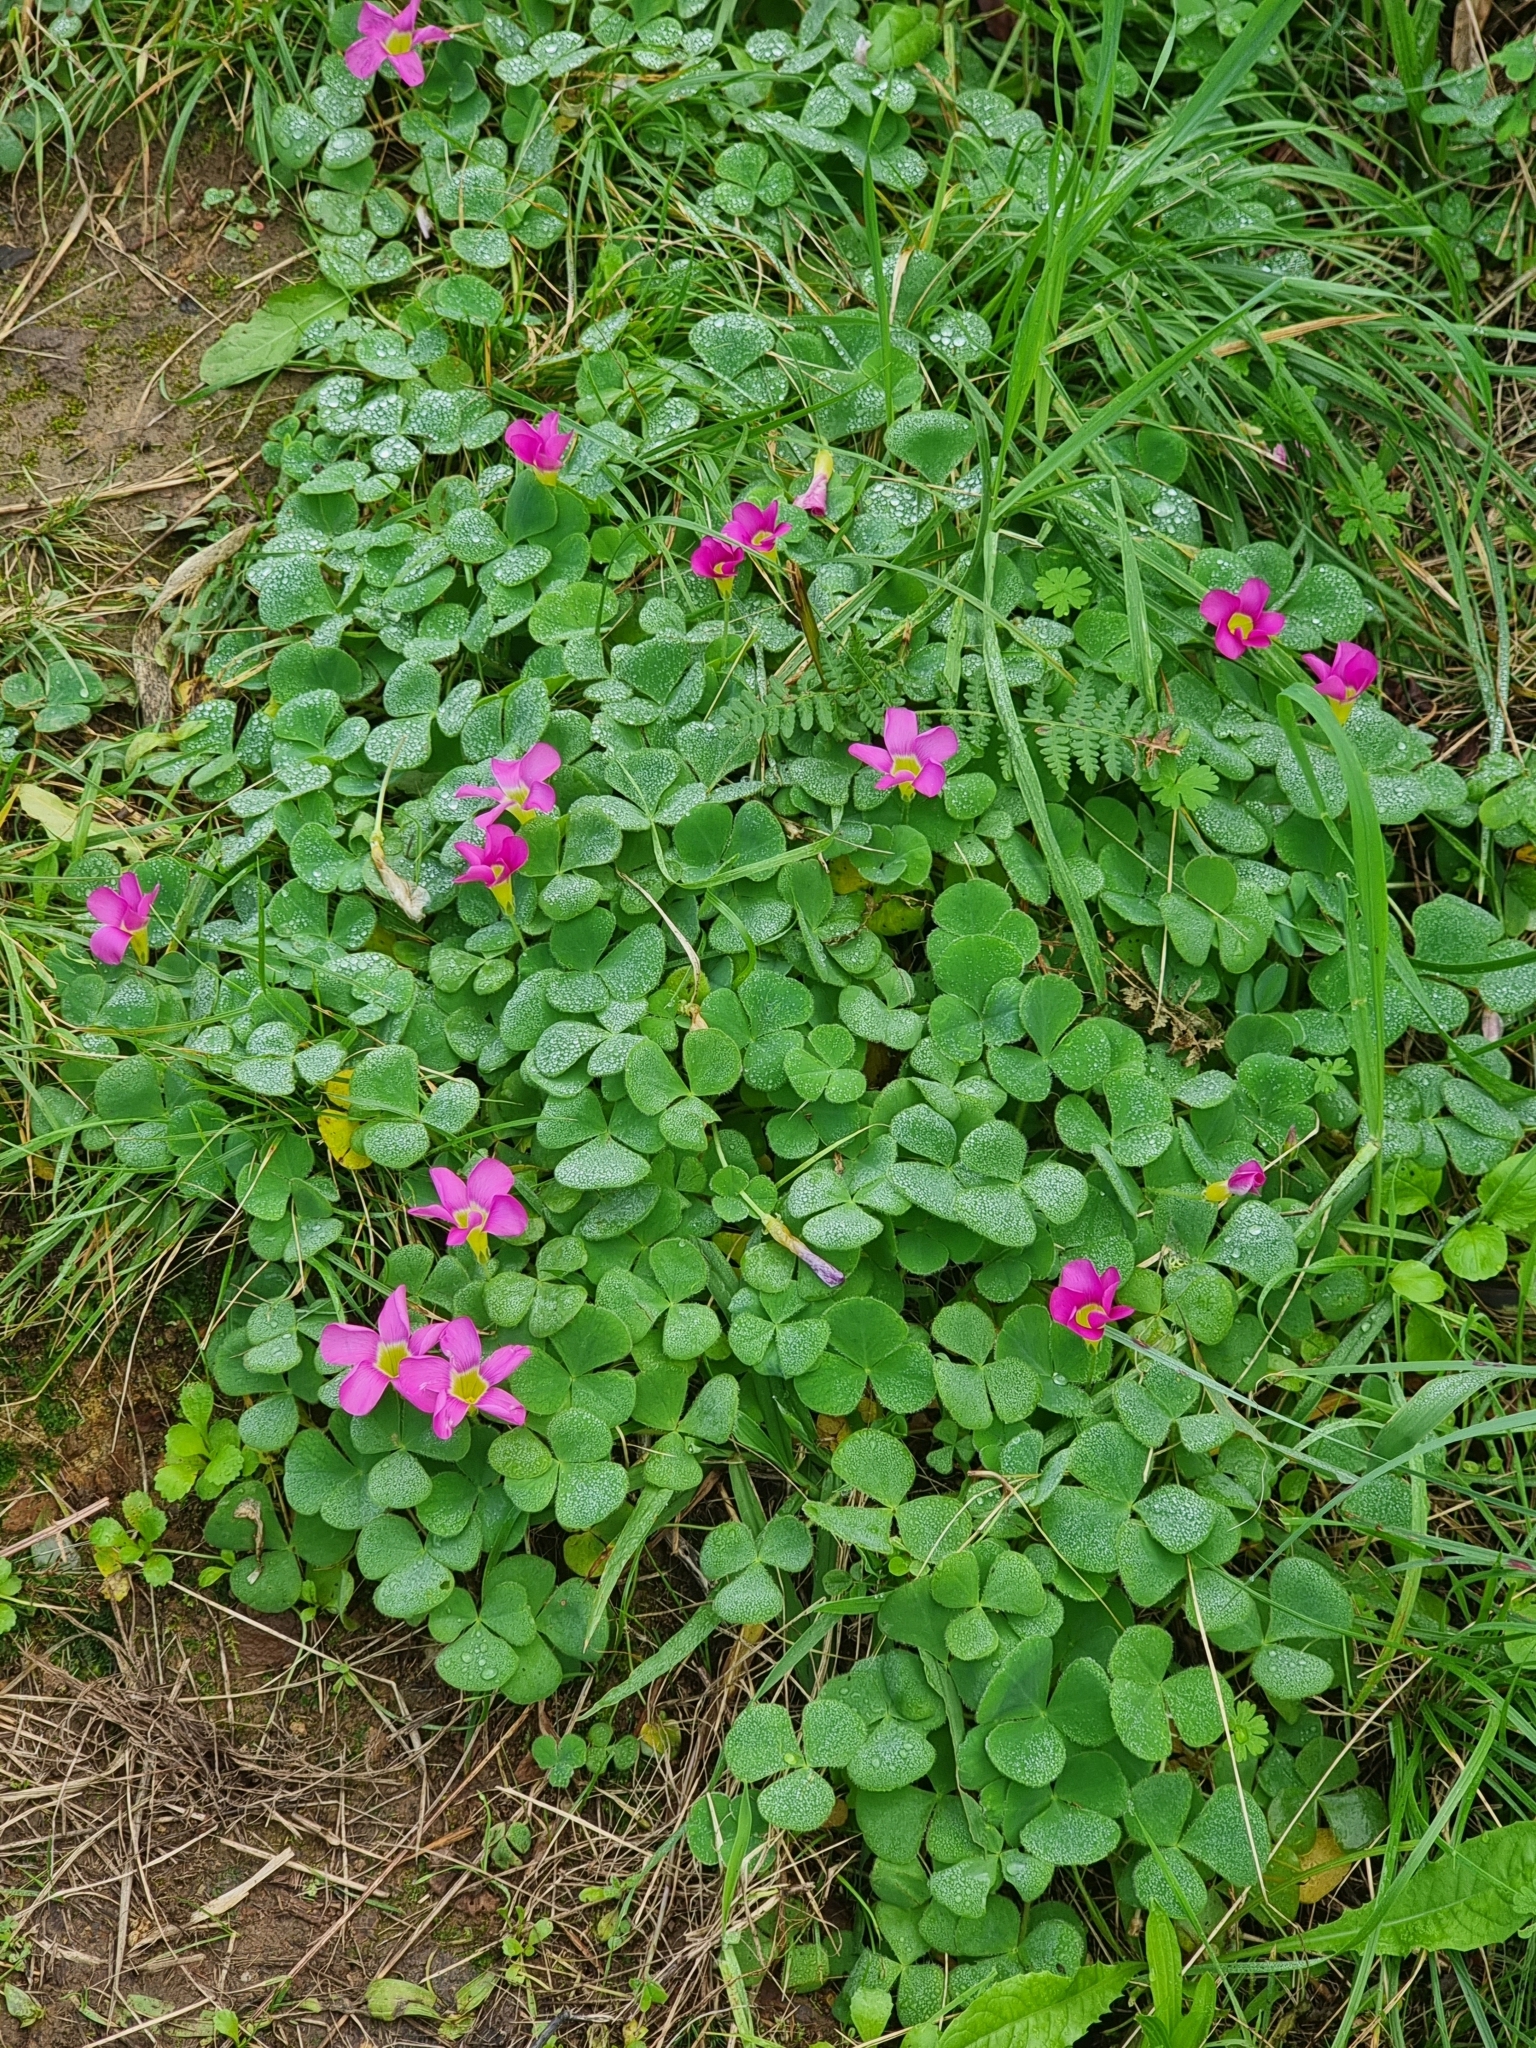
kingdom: Plantae
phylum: Tracheophyta
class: Magnoliopsida
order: Oxalidales
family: Oxalidaceae
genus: Oxalis
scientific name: Oxalis purpurea
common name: Purple woodsorrel
